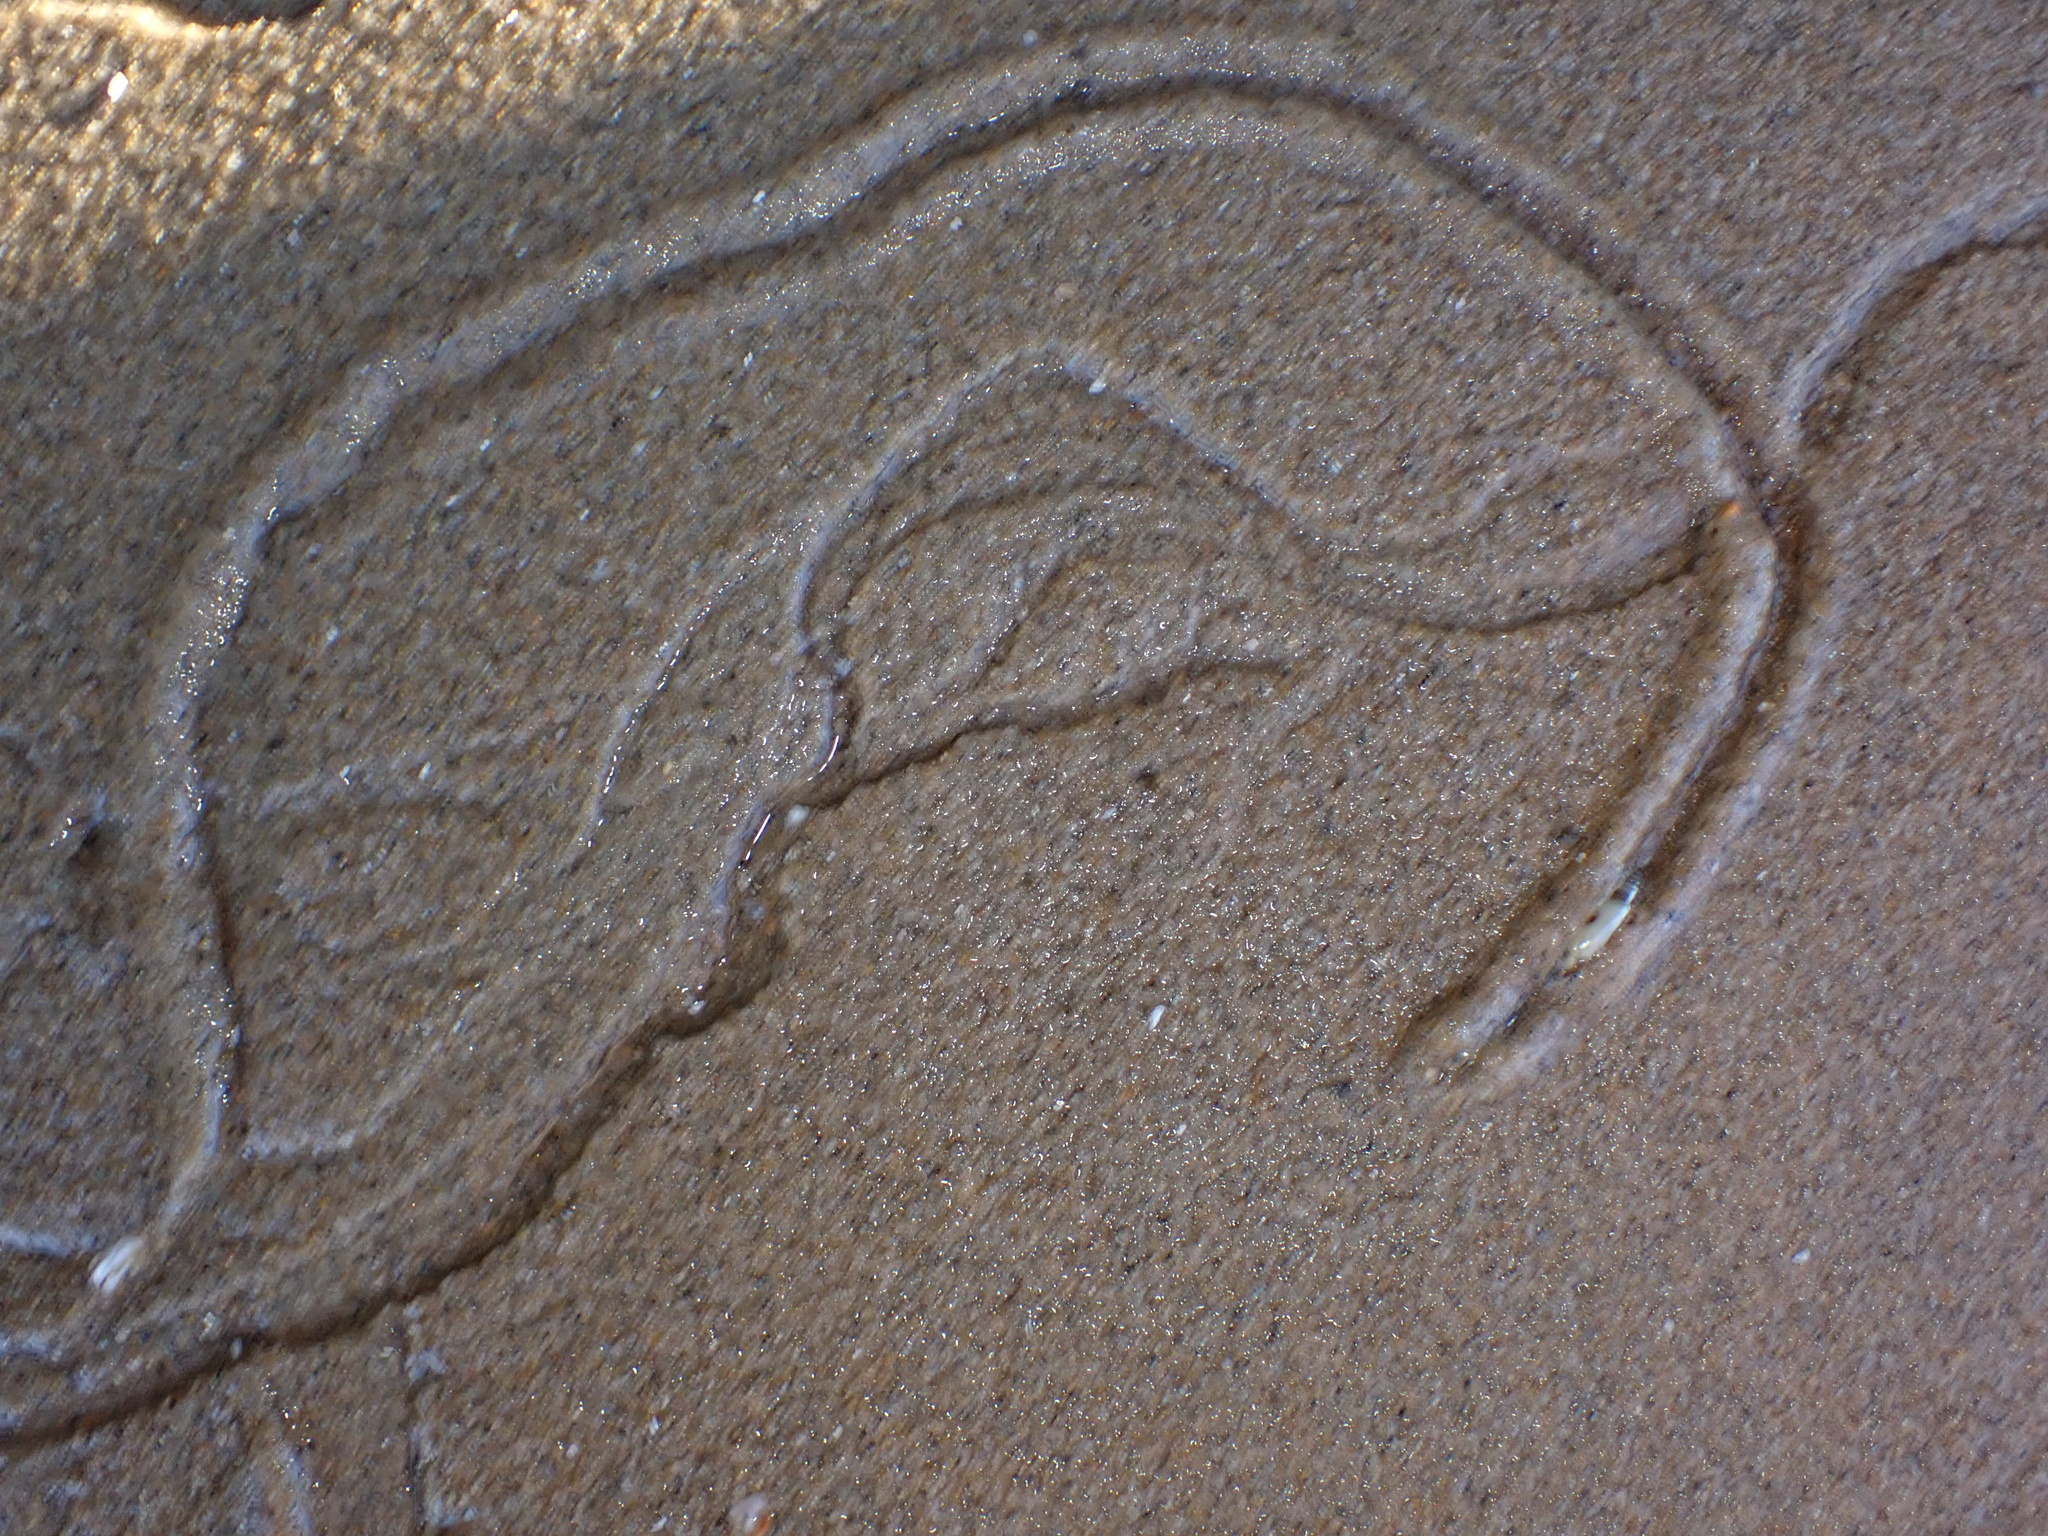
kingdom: Animalia
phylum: Mollusca
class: Gastropoda
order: Neogastropoda
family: Olividae
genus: Callianax
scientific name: Callianax alectona
